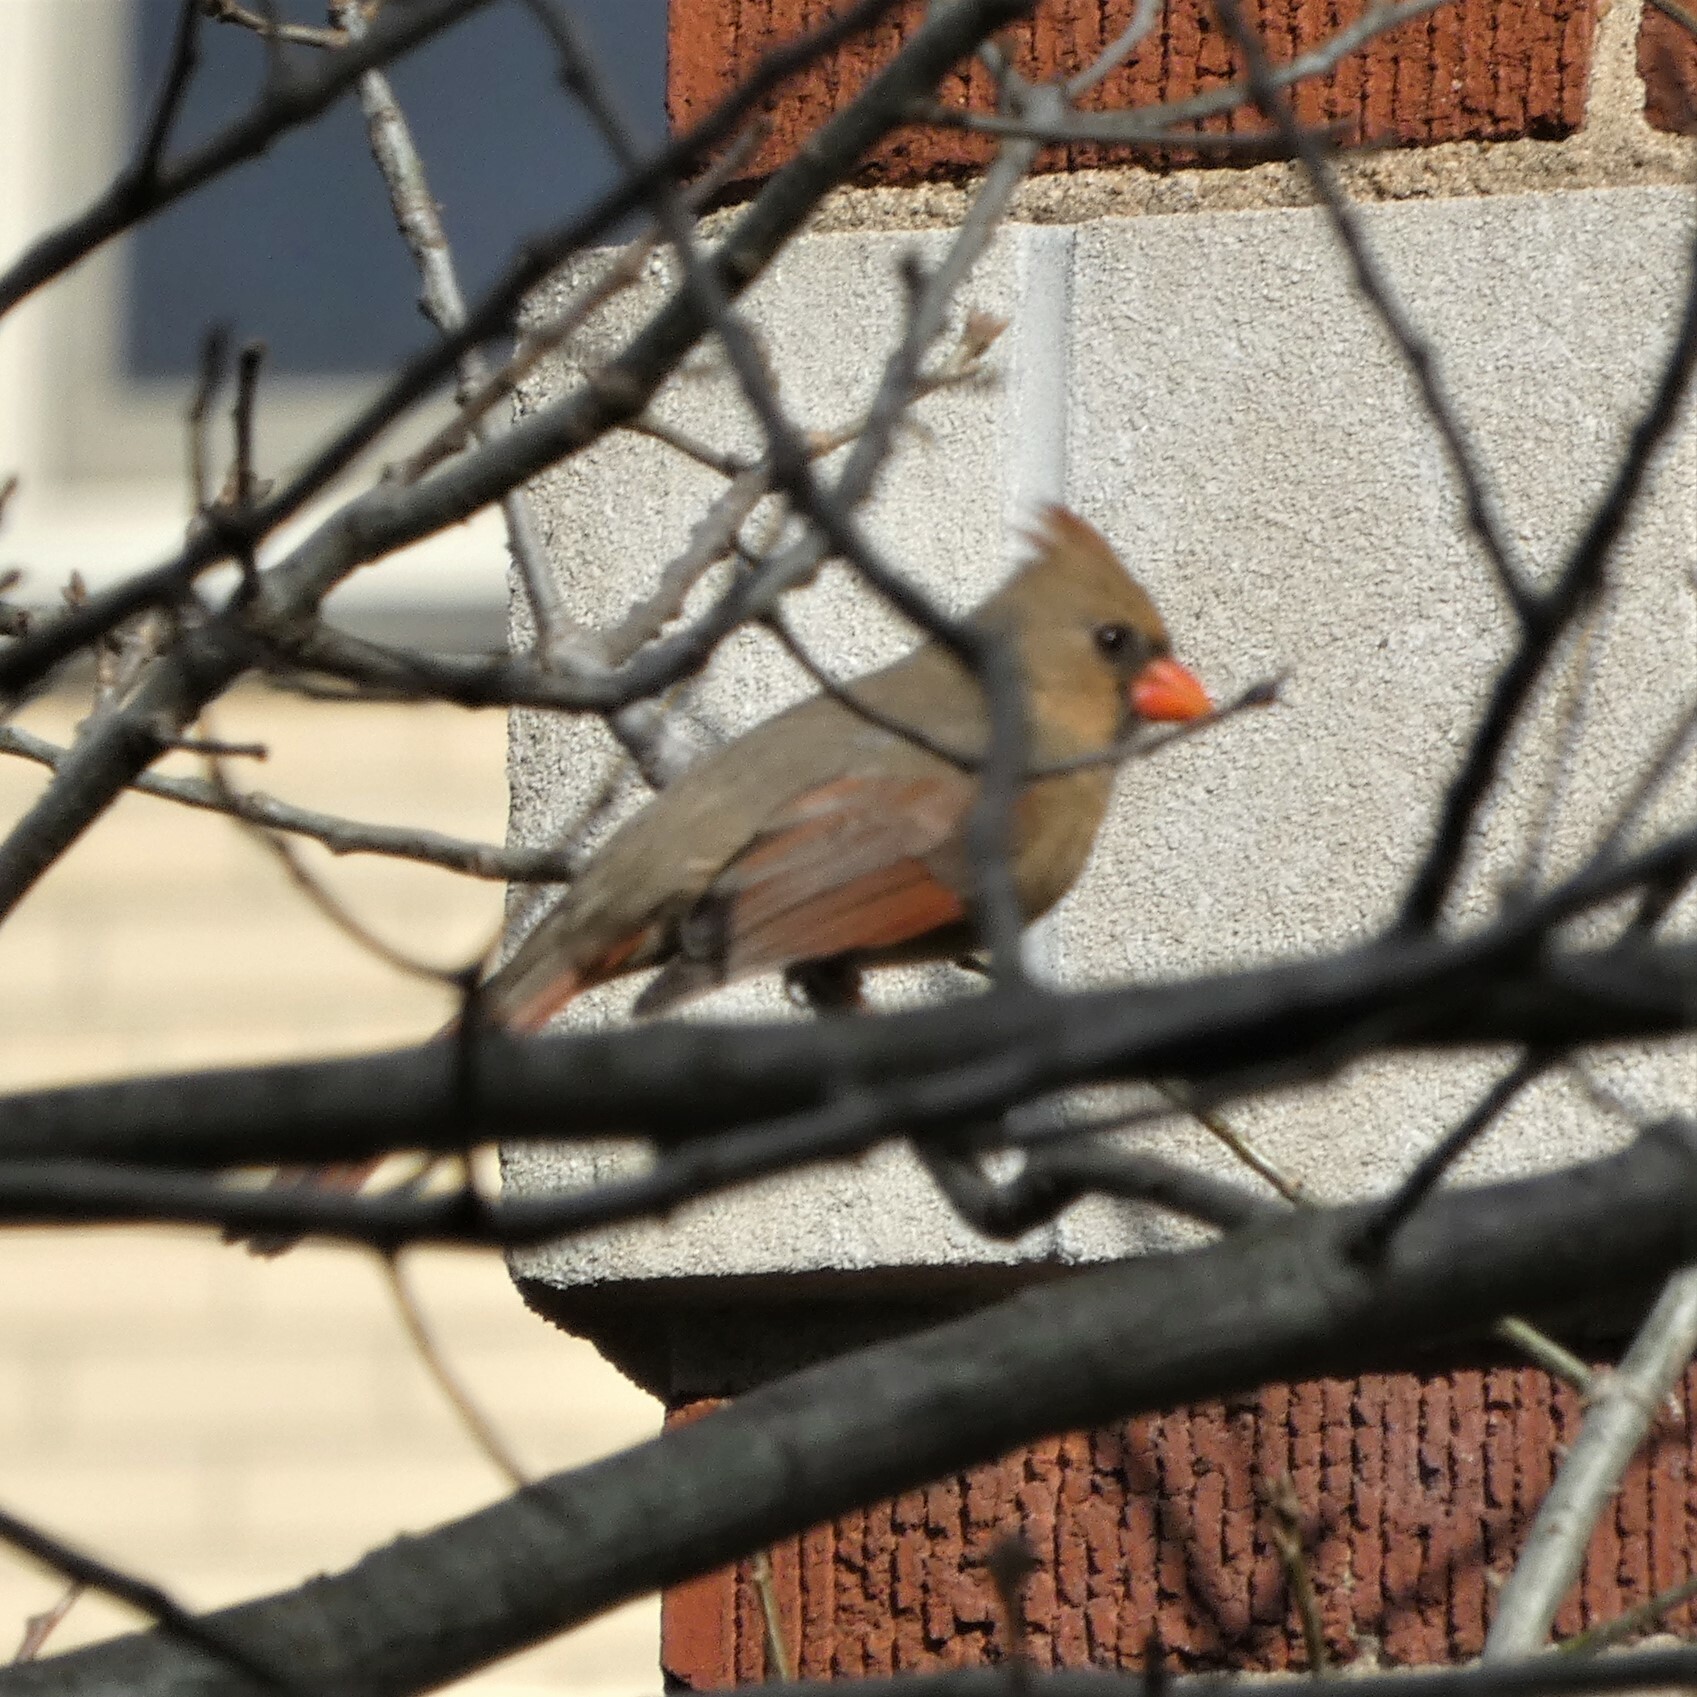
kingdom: Animalia
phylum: Chordata
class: Aves
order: Passeriformes
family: Cardinalidae
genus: Cardinalis
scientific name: Cardinalis cardinalis
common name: Northern cardinal
